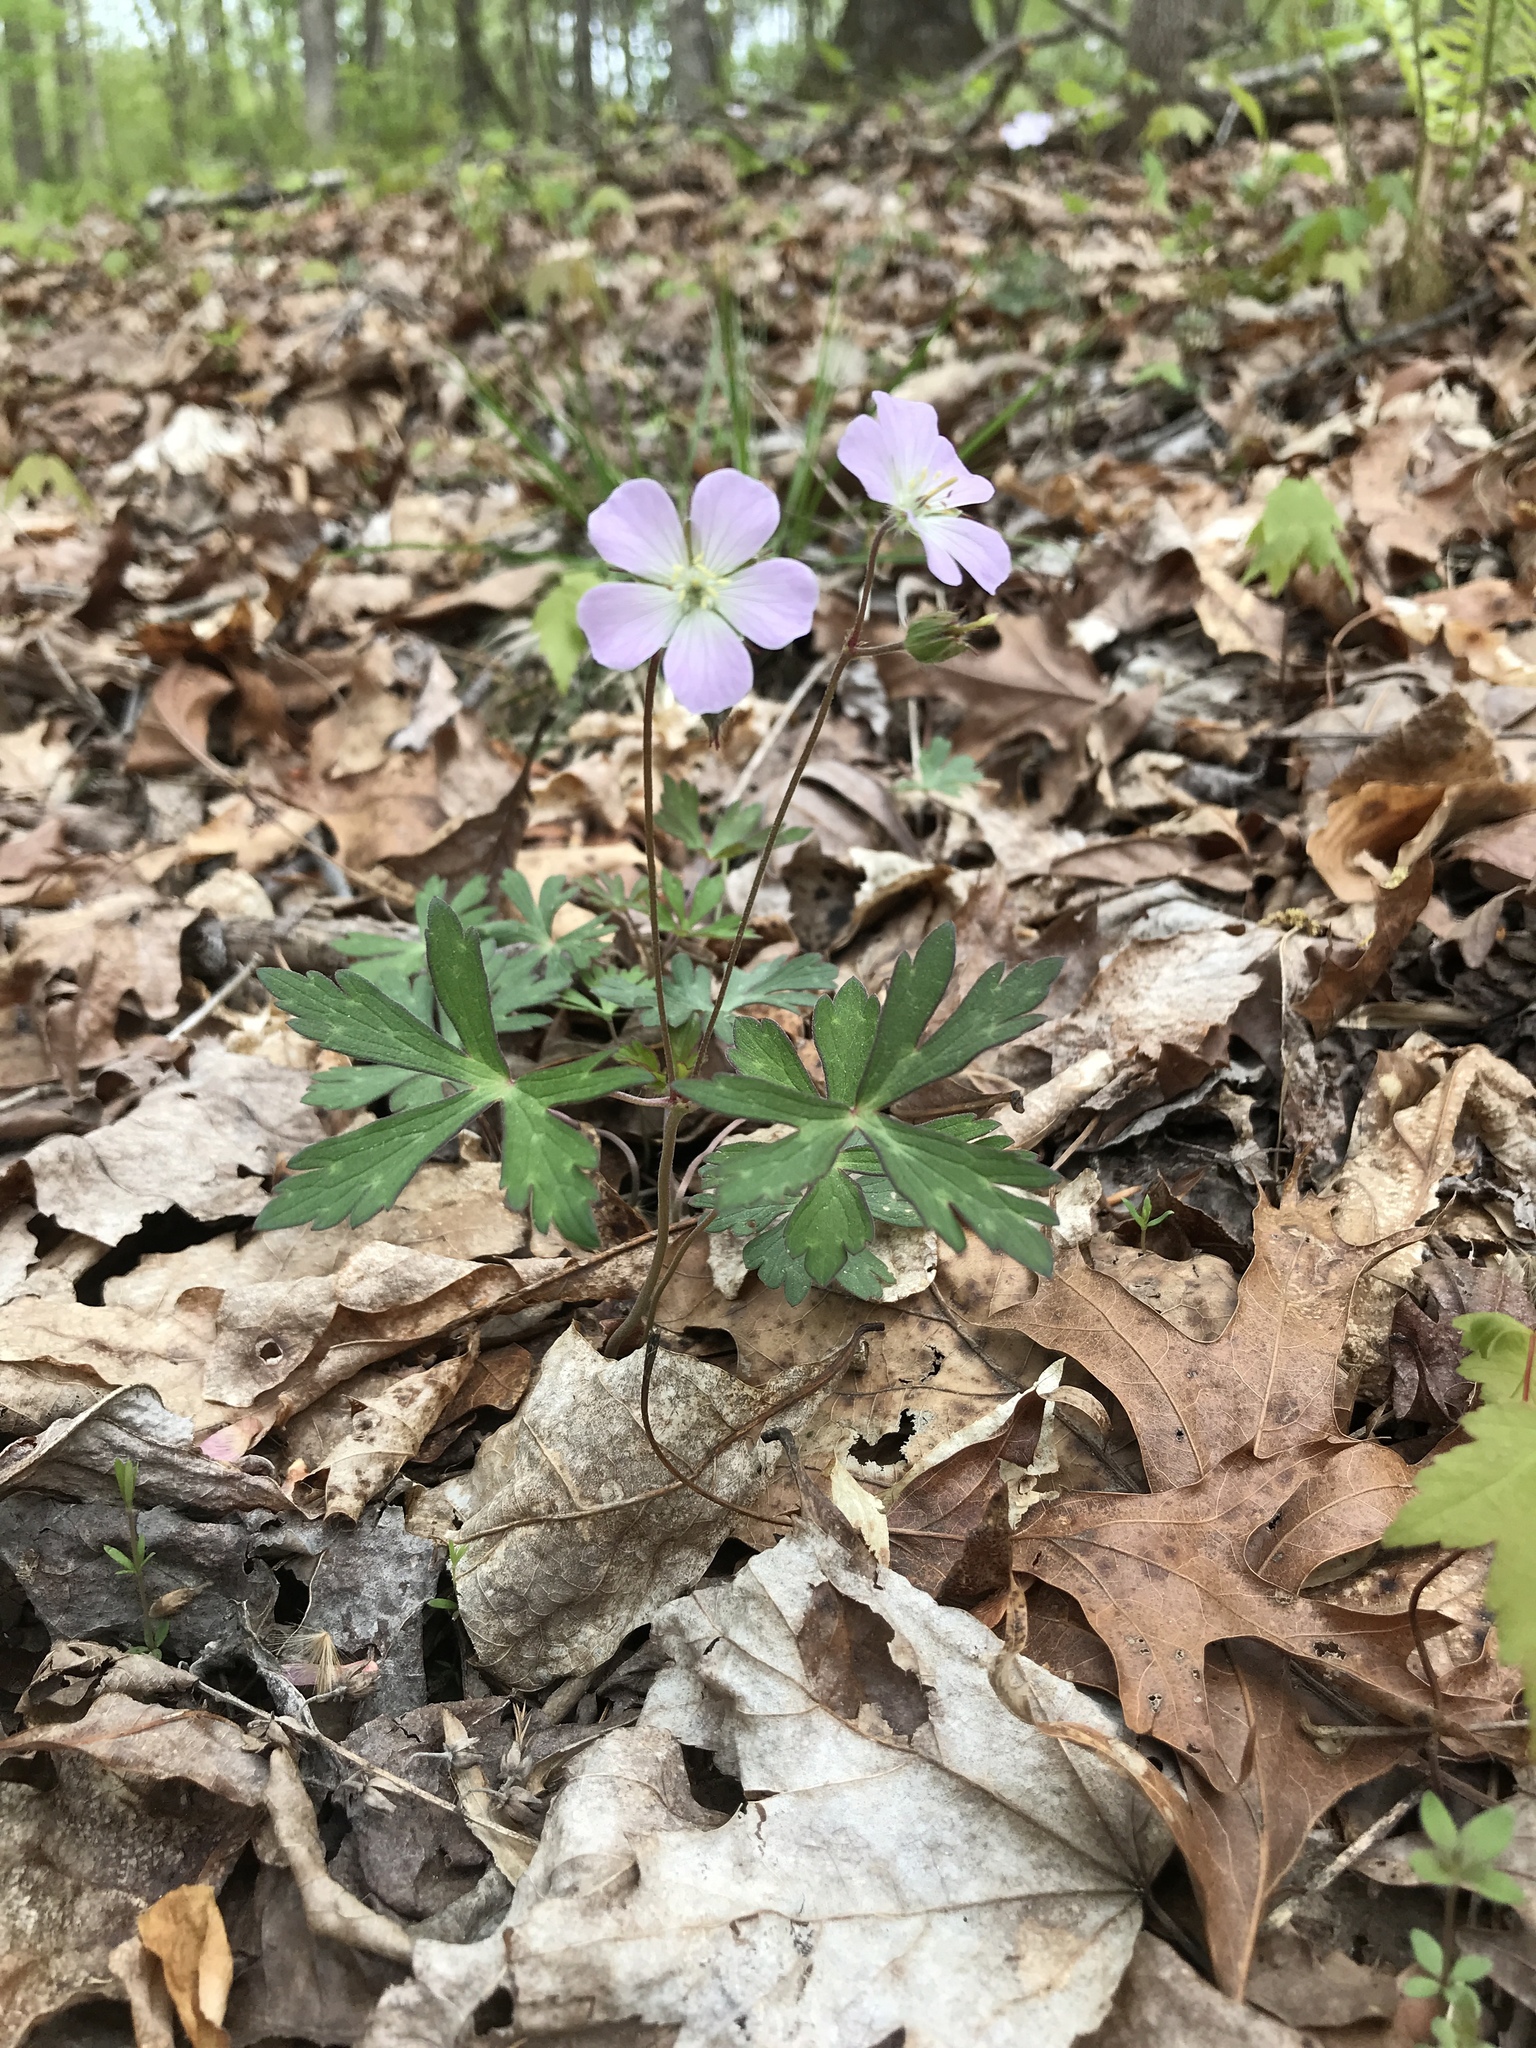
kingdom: Plantae
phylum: Tracheophyta
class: Magnoliopsida
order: Geraniales
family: Geraniaceae
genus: Geranium
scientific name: Geranium maculatum
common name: Spotted geranium
